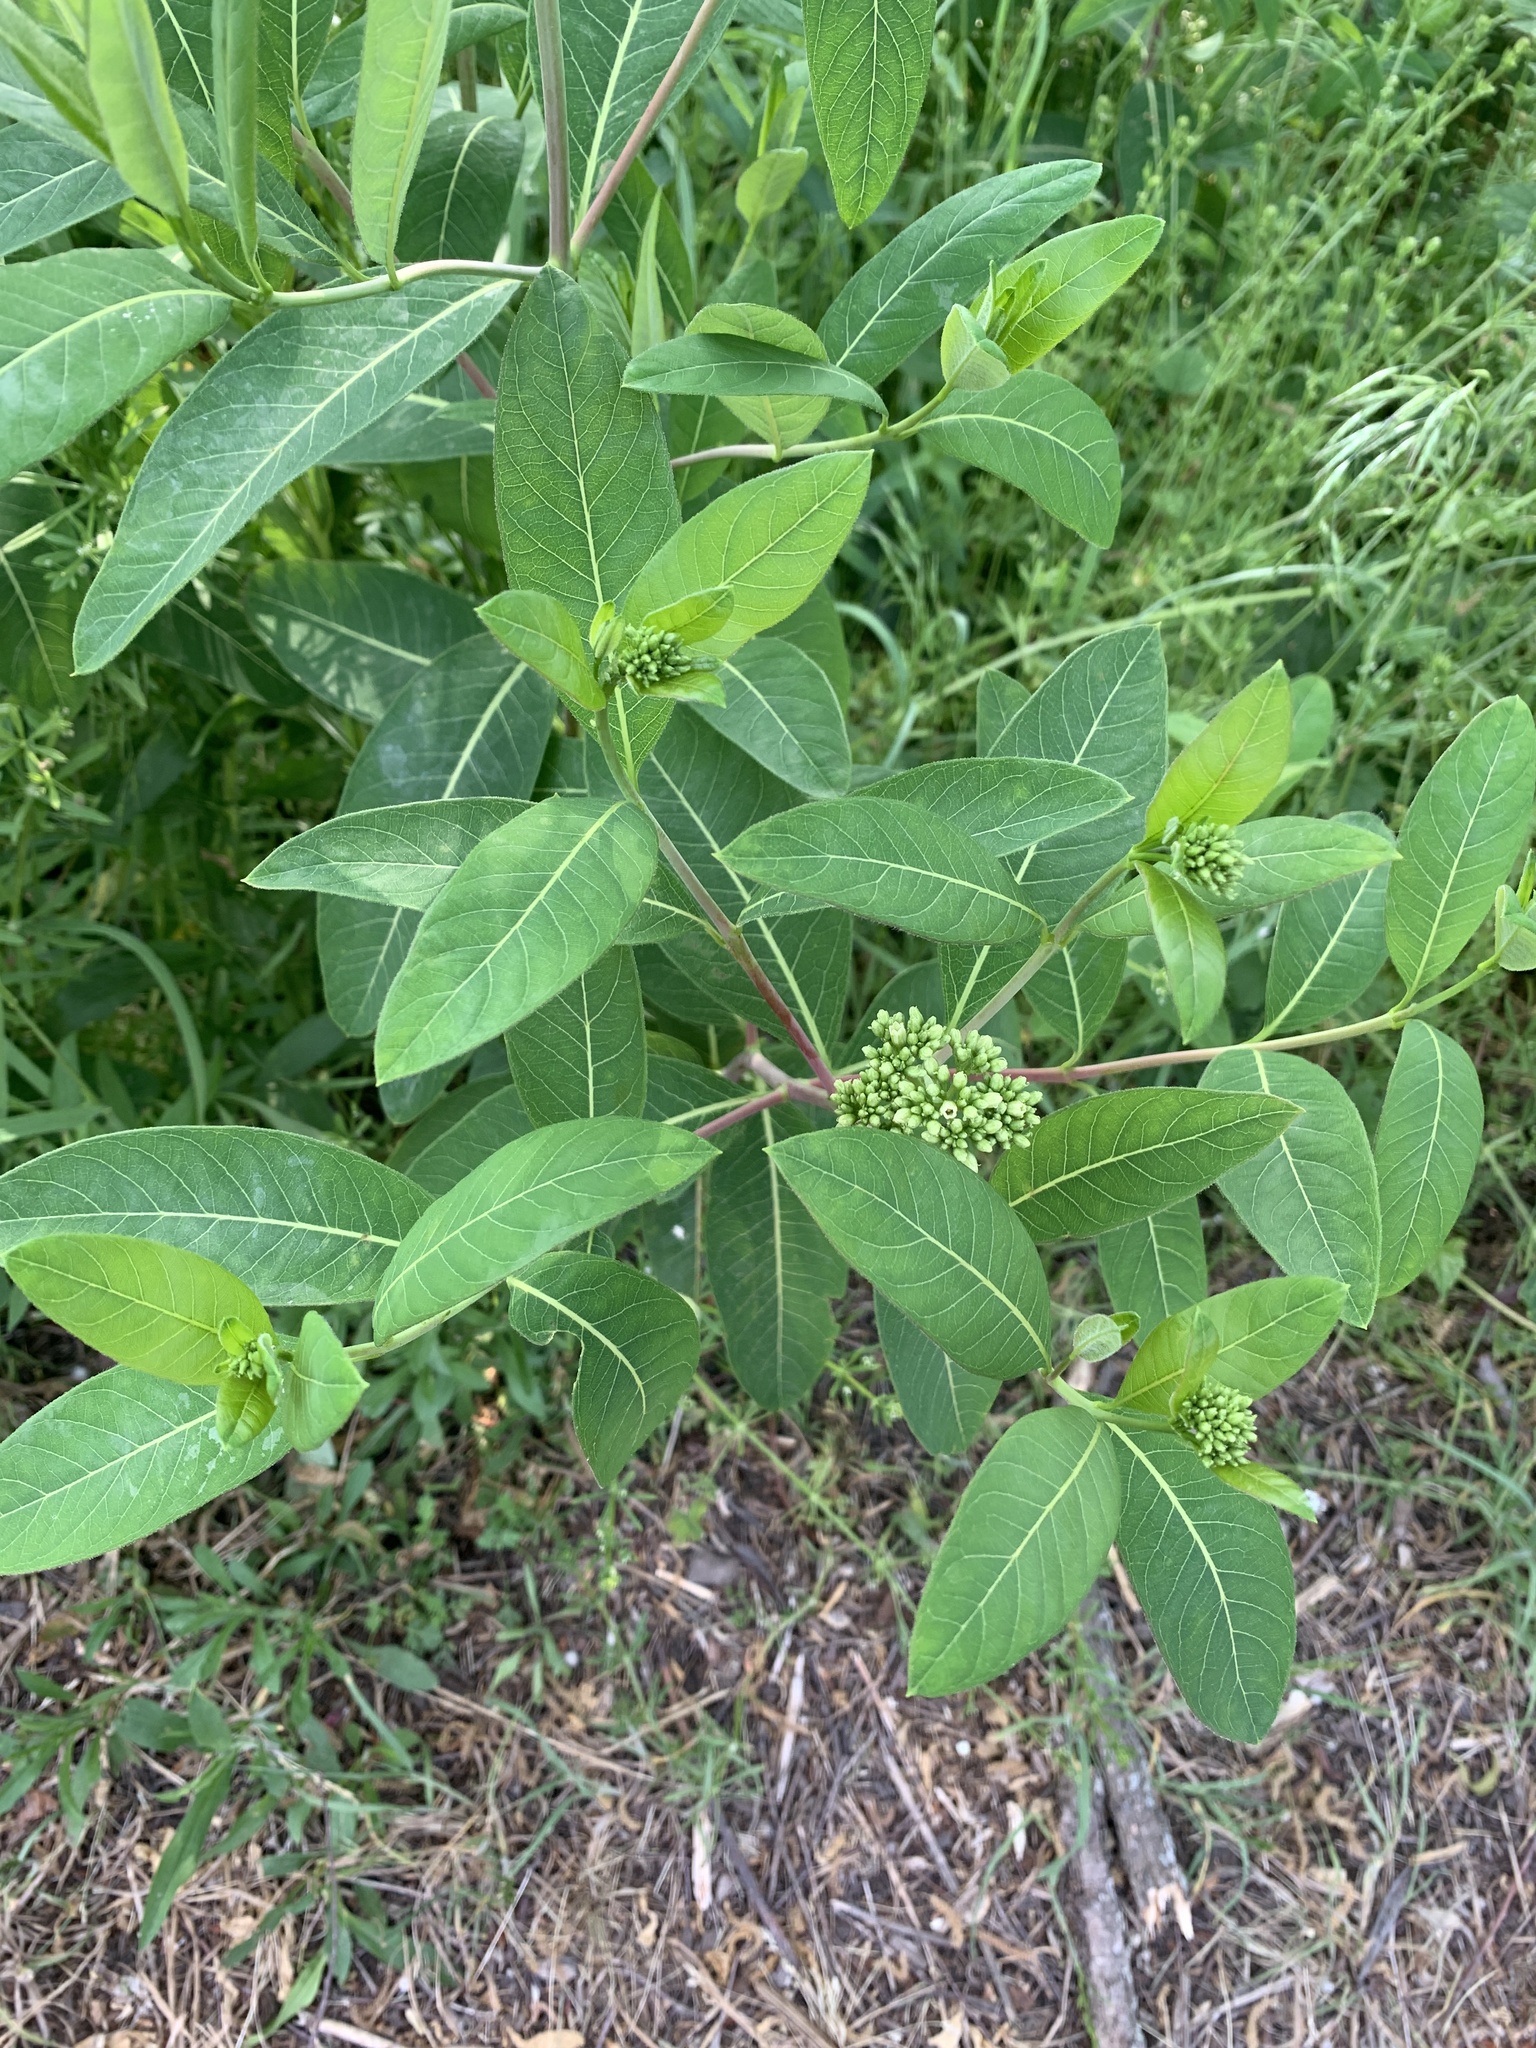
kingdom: Plantae
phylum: Tracheophyta
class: Magnoliopsida
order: Gentianales
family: Apocynaceae
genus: Apocynum
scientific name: Apocynum cannabinum
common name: Hemp dogbane
